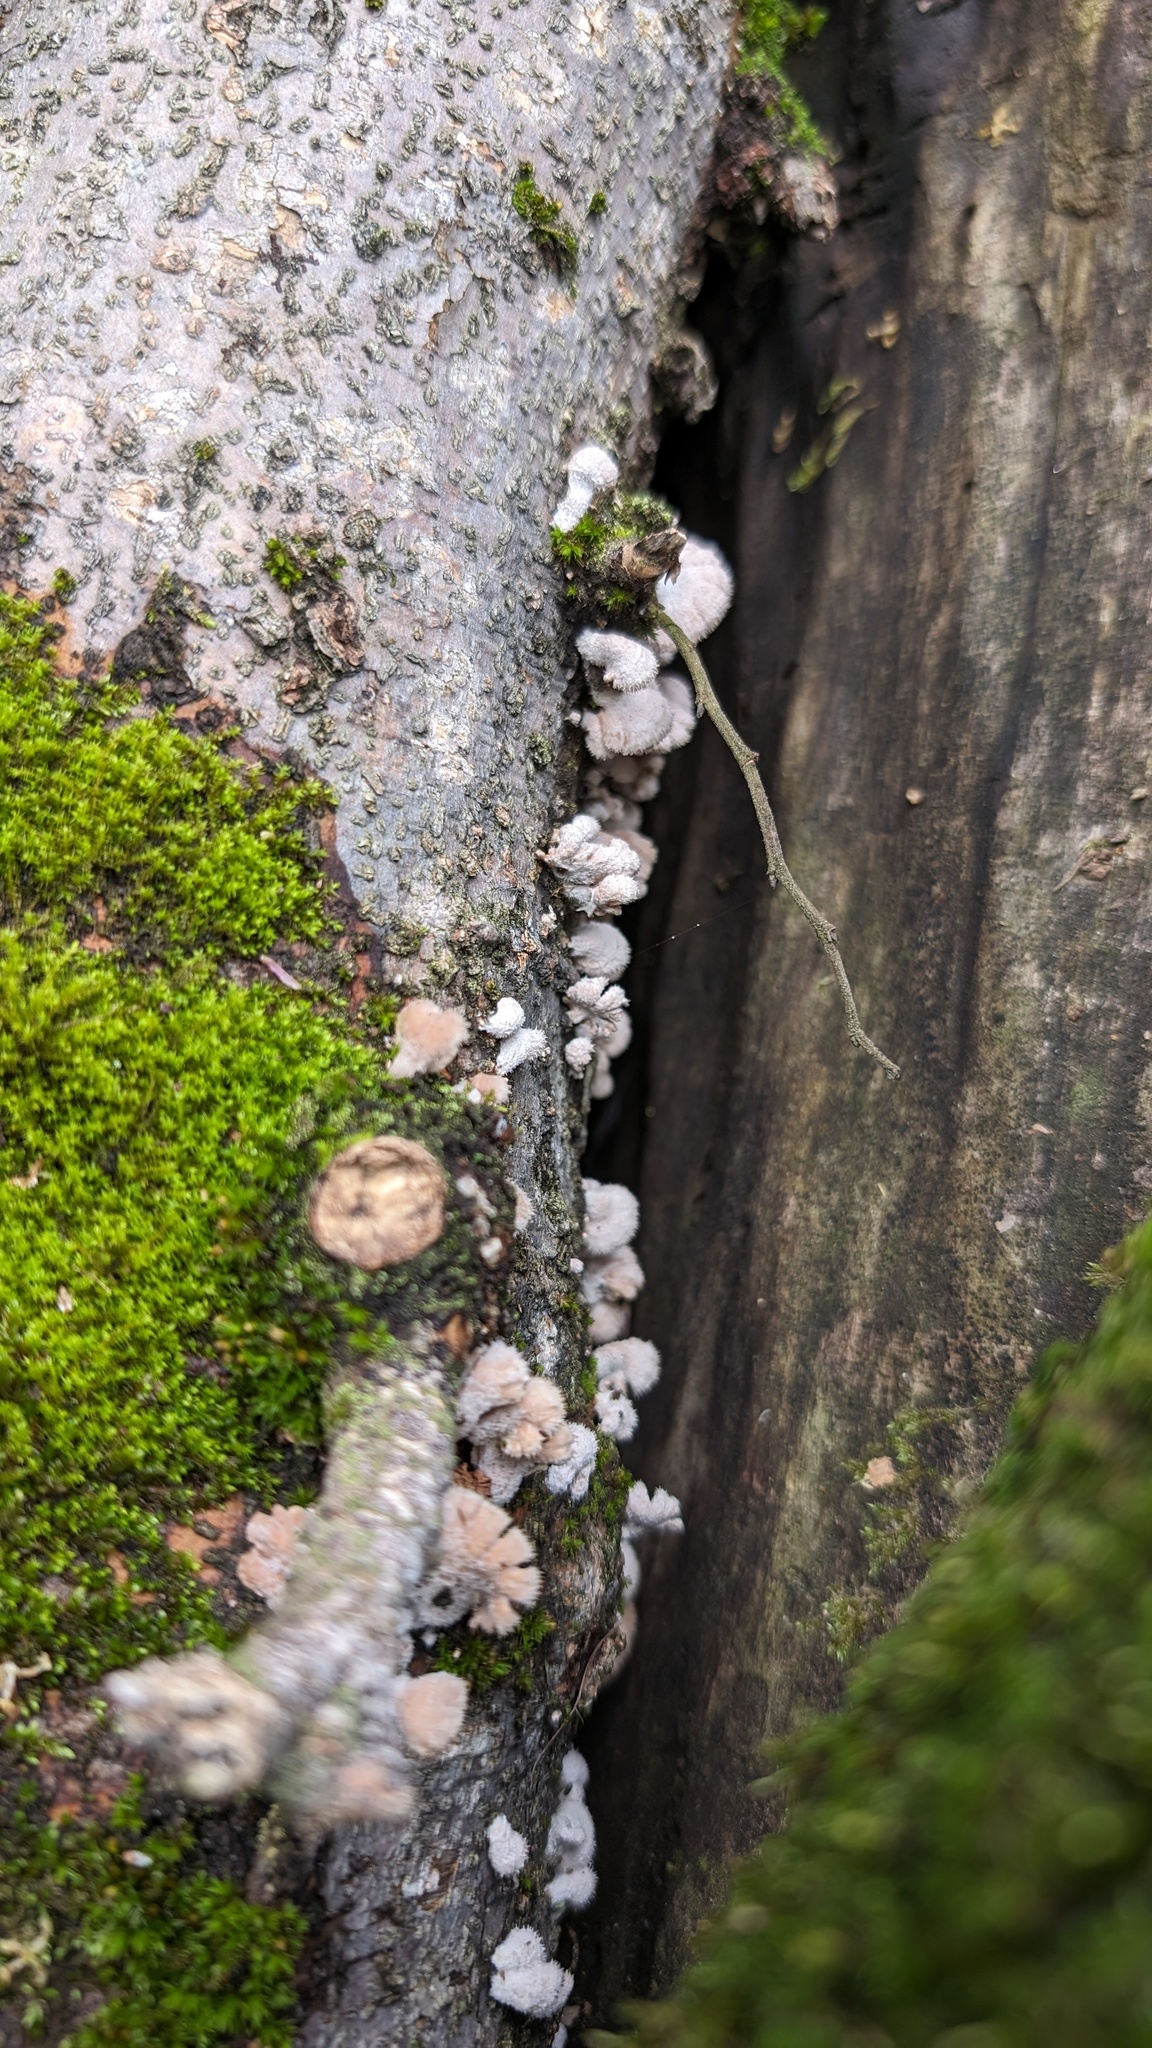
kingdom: Fungi
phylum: Basidiomycota
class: Agaricomycetes
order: Agaricales
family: Schizophyllaceae
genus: Schizophyllum
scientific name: Schizophyllum commune
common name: Common porecrust
